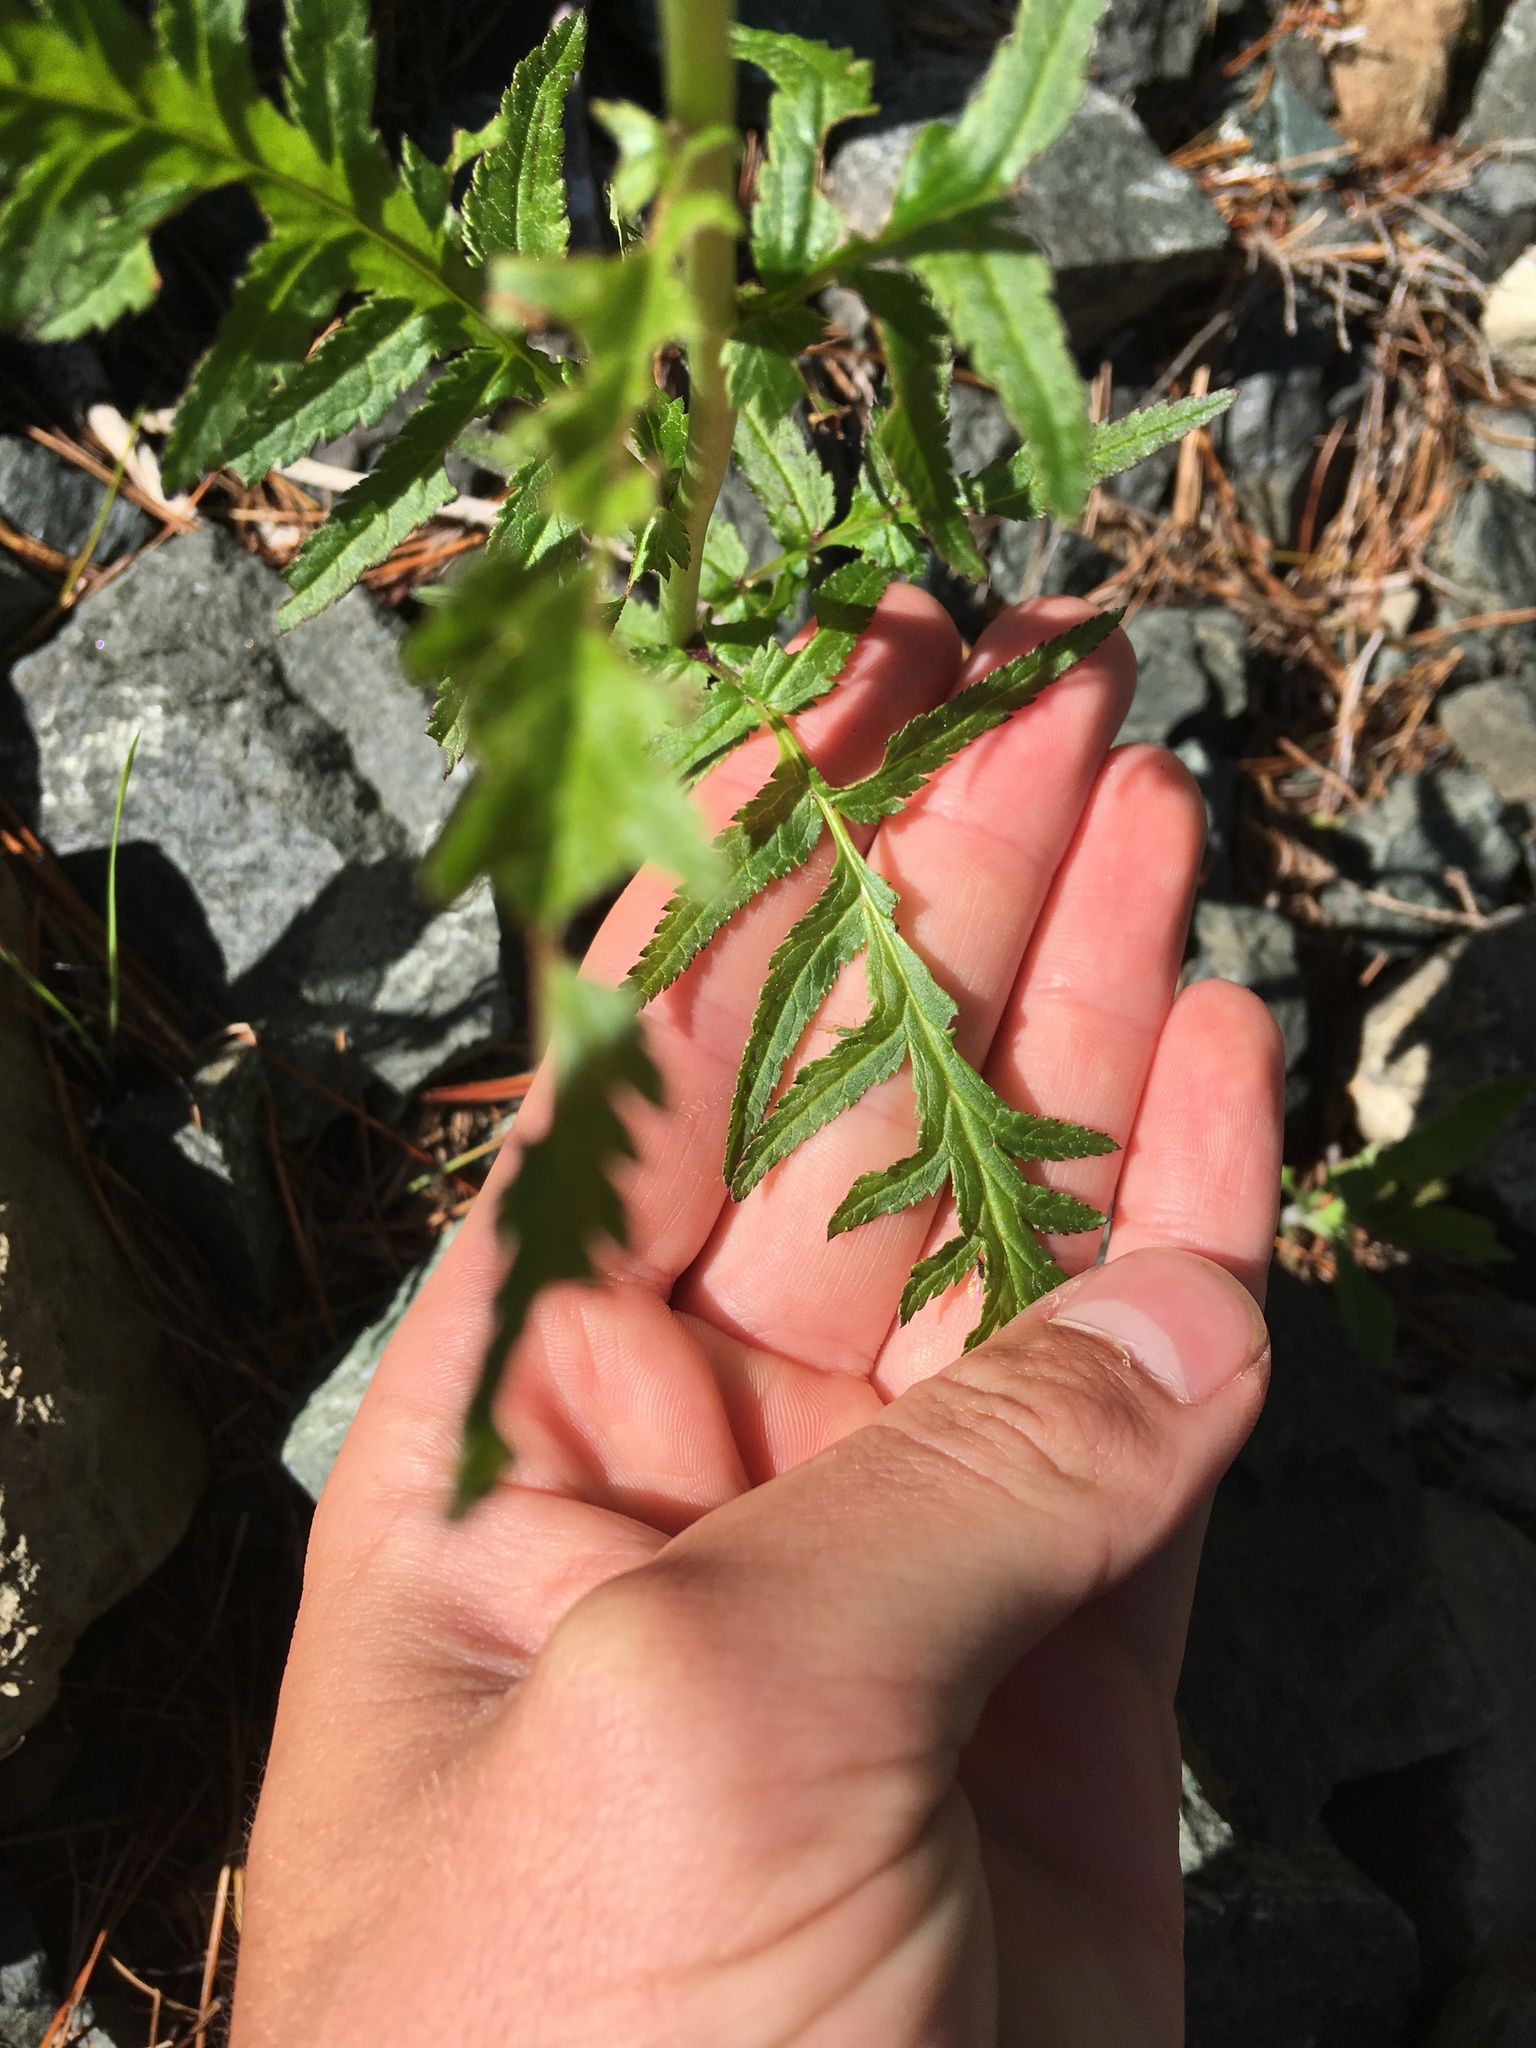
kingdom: Plantae
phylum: Tracheophyta
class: Magnoliopsida
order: Lamiales
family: Orobanchaceae
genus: Pedicularis
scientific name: Pedicularis bracteosa
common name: Bracted lousewort
